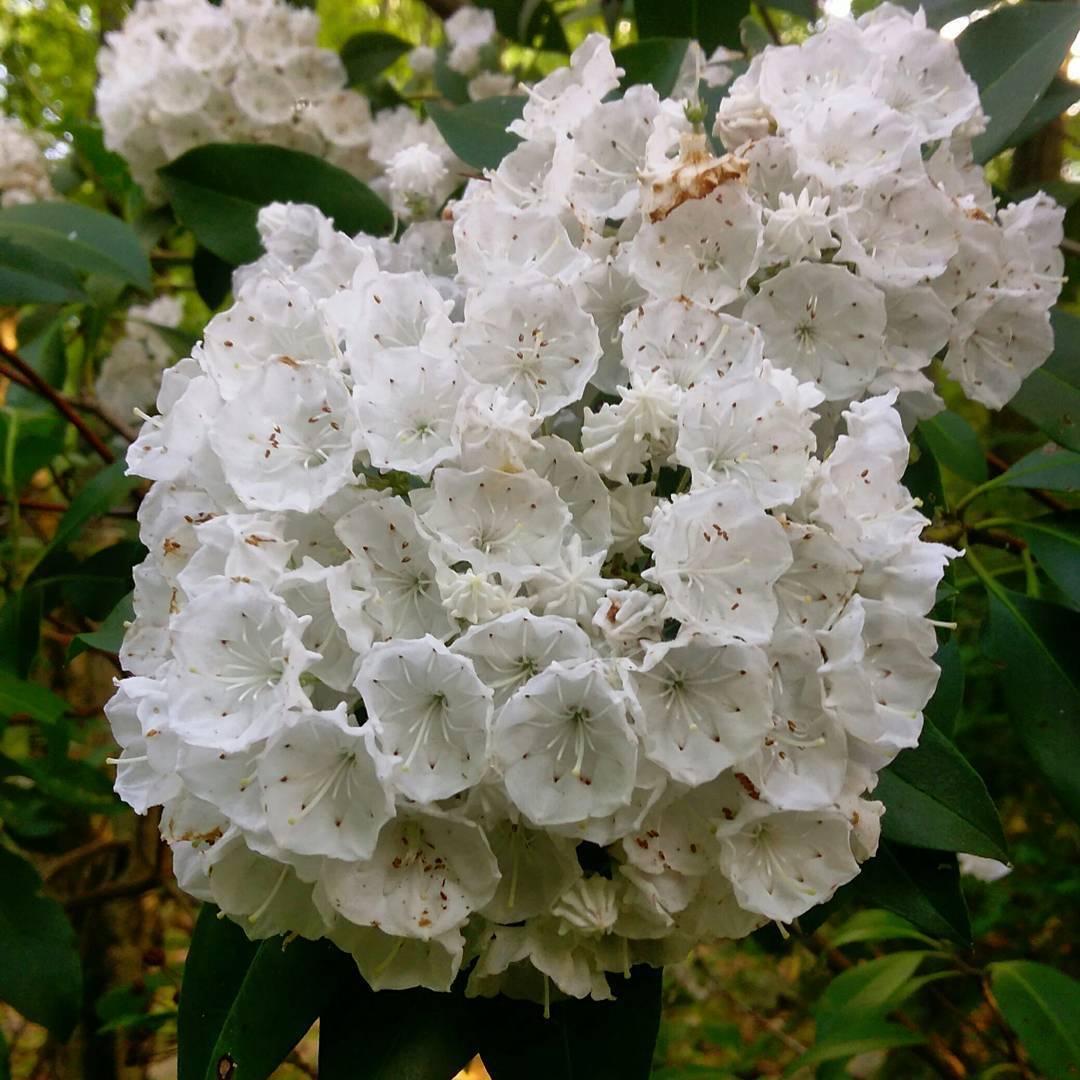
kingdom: Plantae
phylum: Tracheophyta
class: Magnoliopsida
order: Ericales
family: Ericaceae
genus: Kalmia
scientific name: Kalmia latifolia
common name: Mountain-laurel
